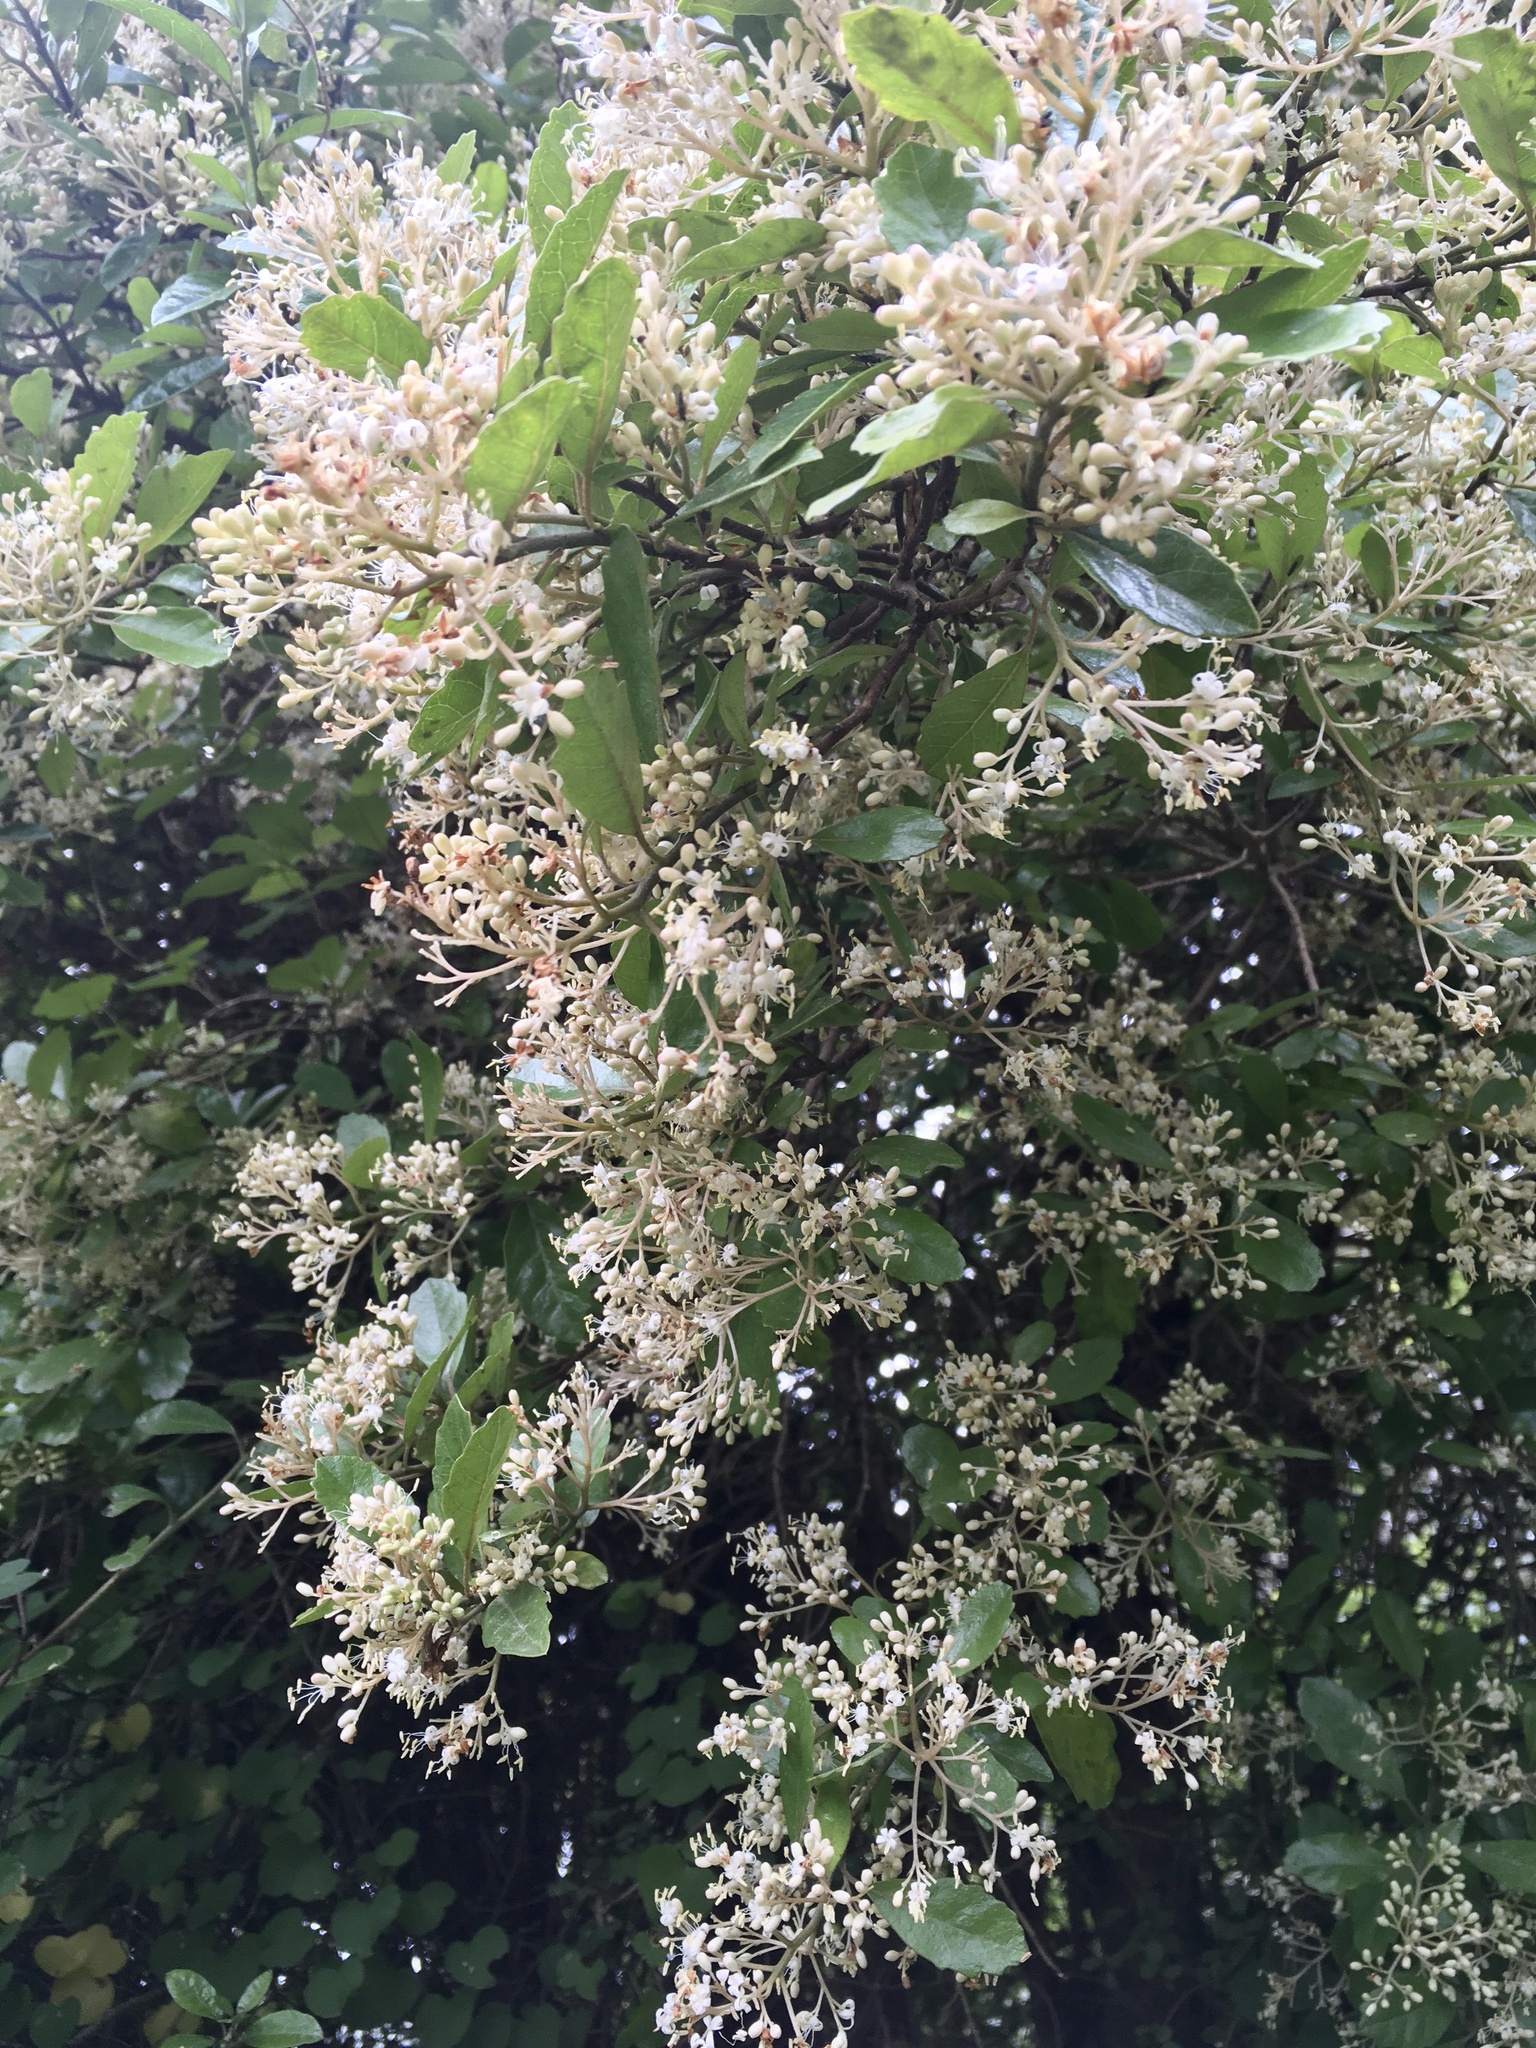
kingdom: Plantae
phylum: Tracheophyta
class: Magnoliopsida
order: Apiales
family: Pennantiaceae
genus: Pennantia
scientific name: Pennantia corymbosa
